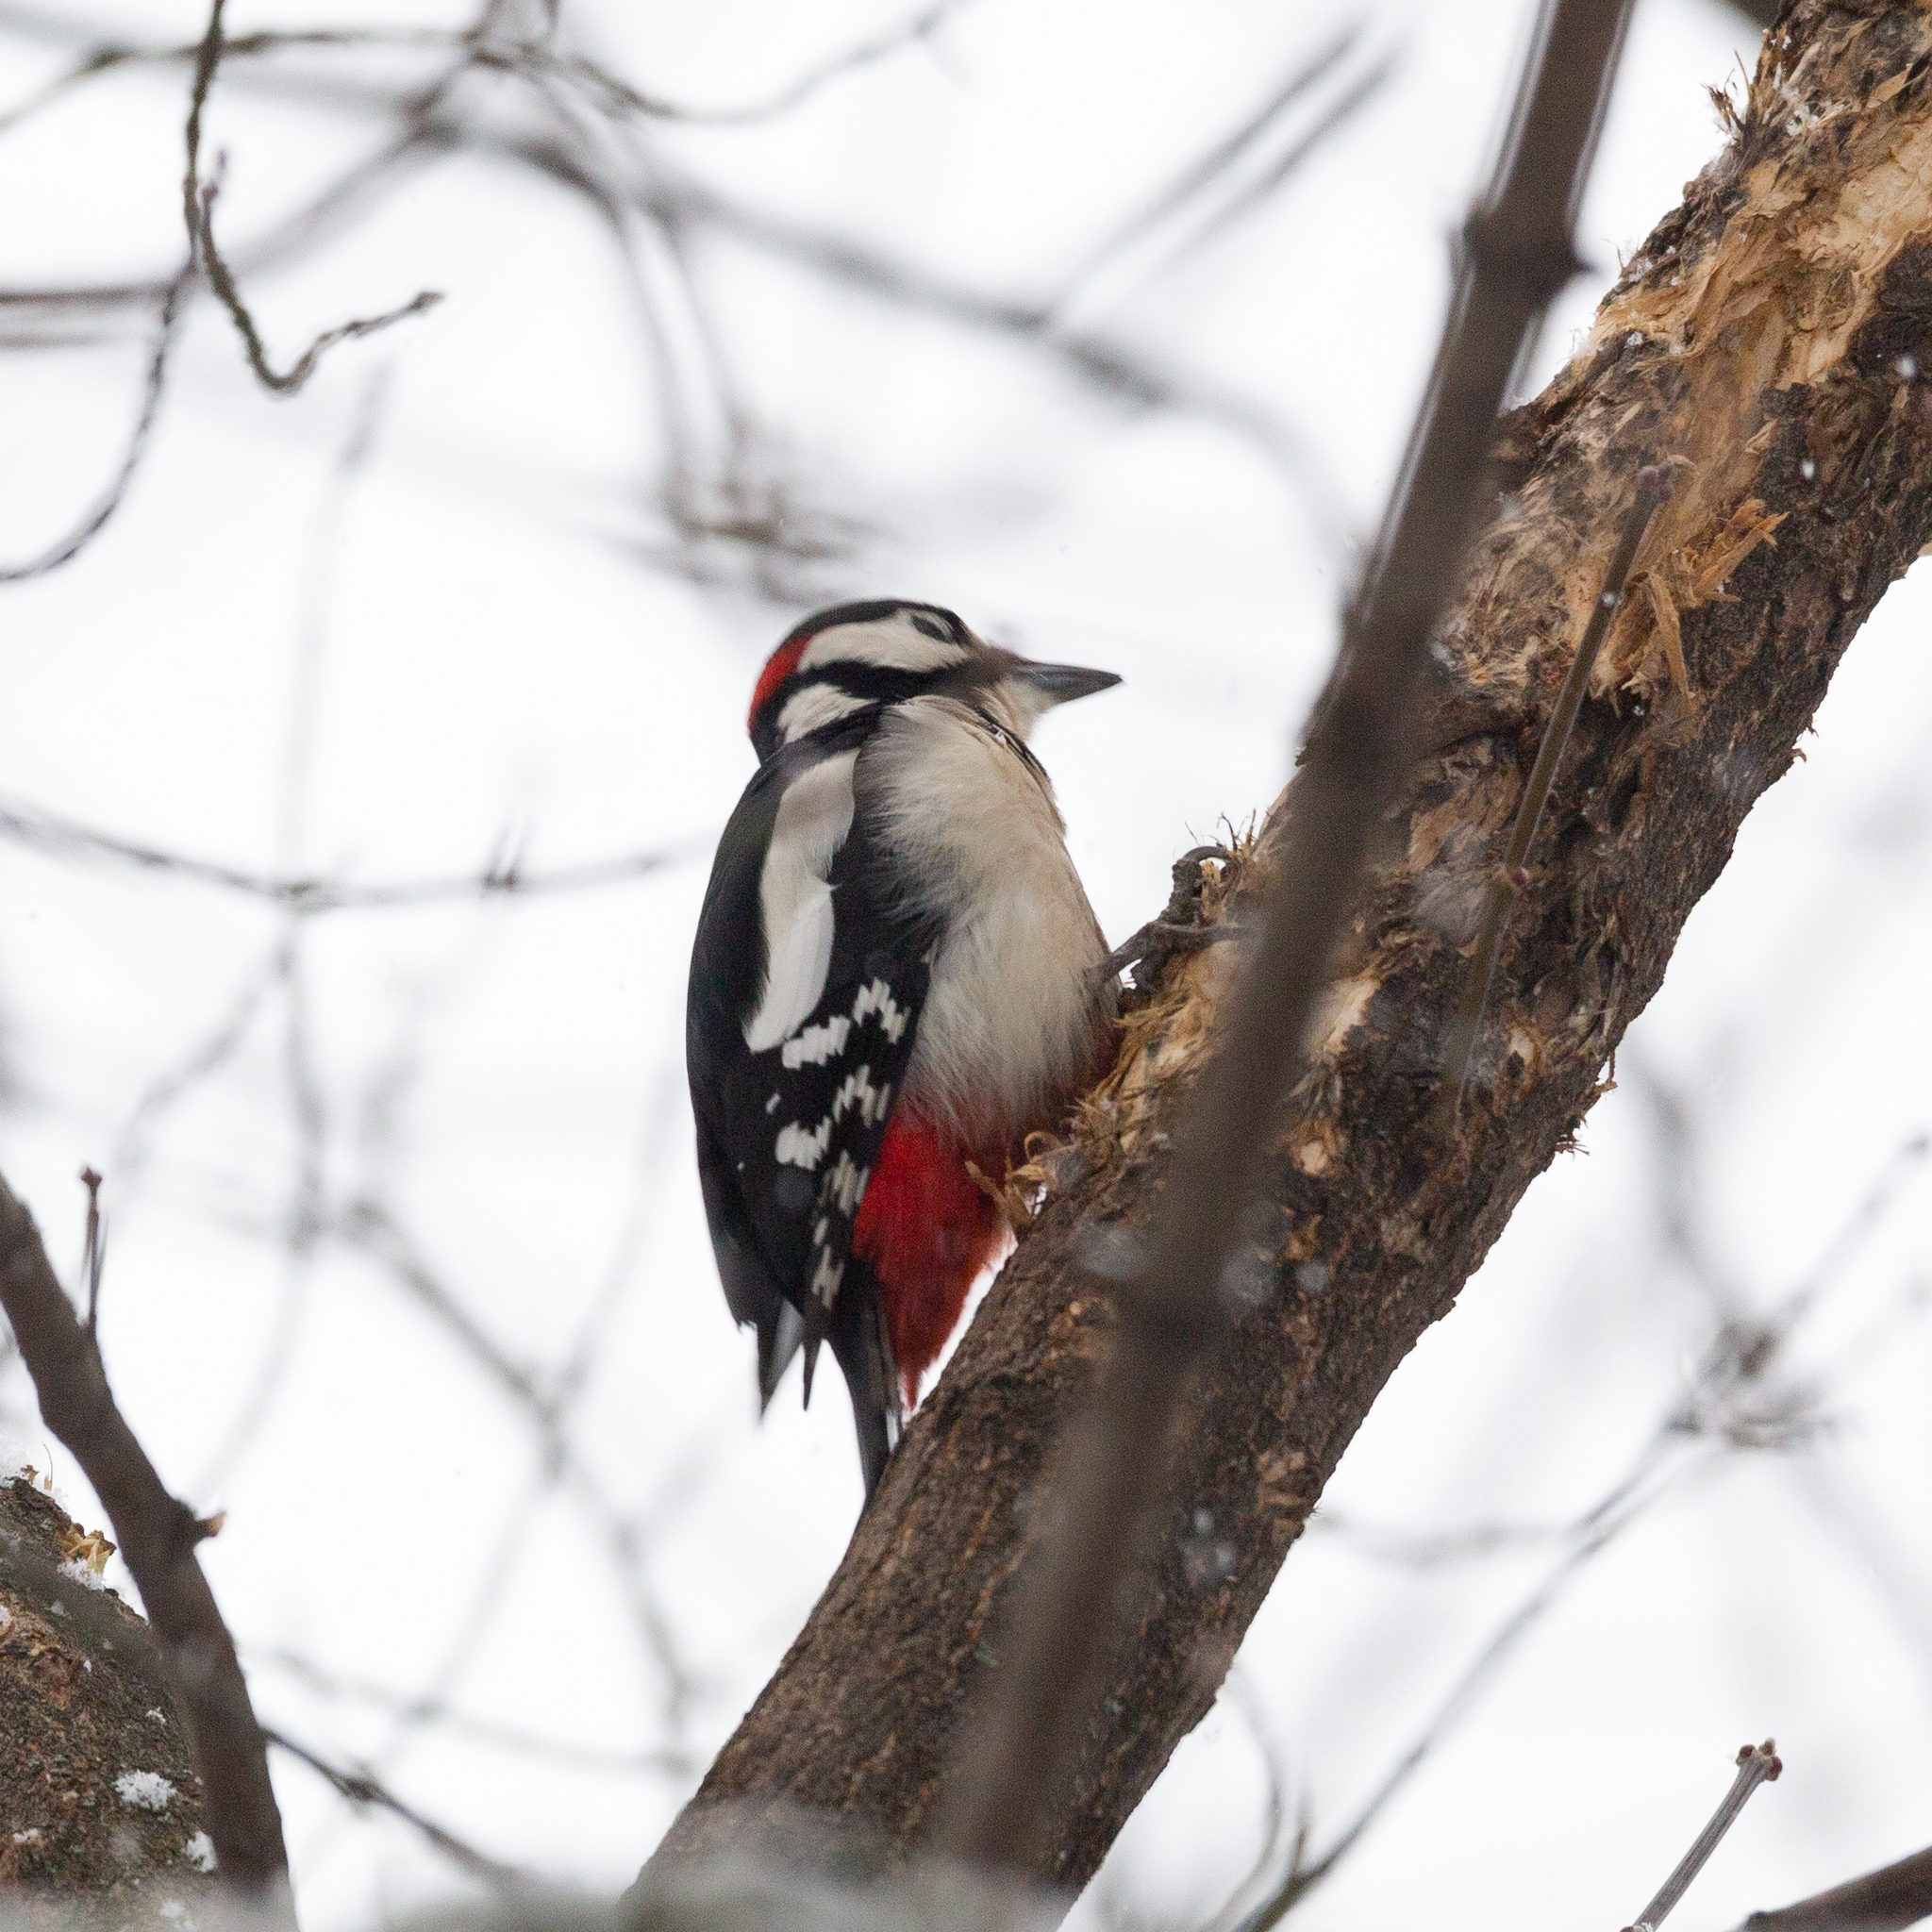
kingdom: Animalia
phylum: Chordata
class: Aves
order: Piciformes
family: Picidae
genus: Dendrocopos
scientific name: Dendrocopos major
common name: Great spotted woodpecker
